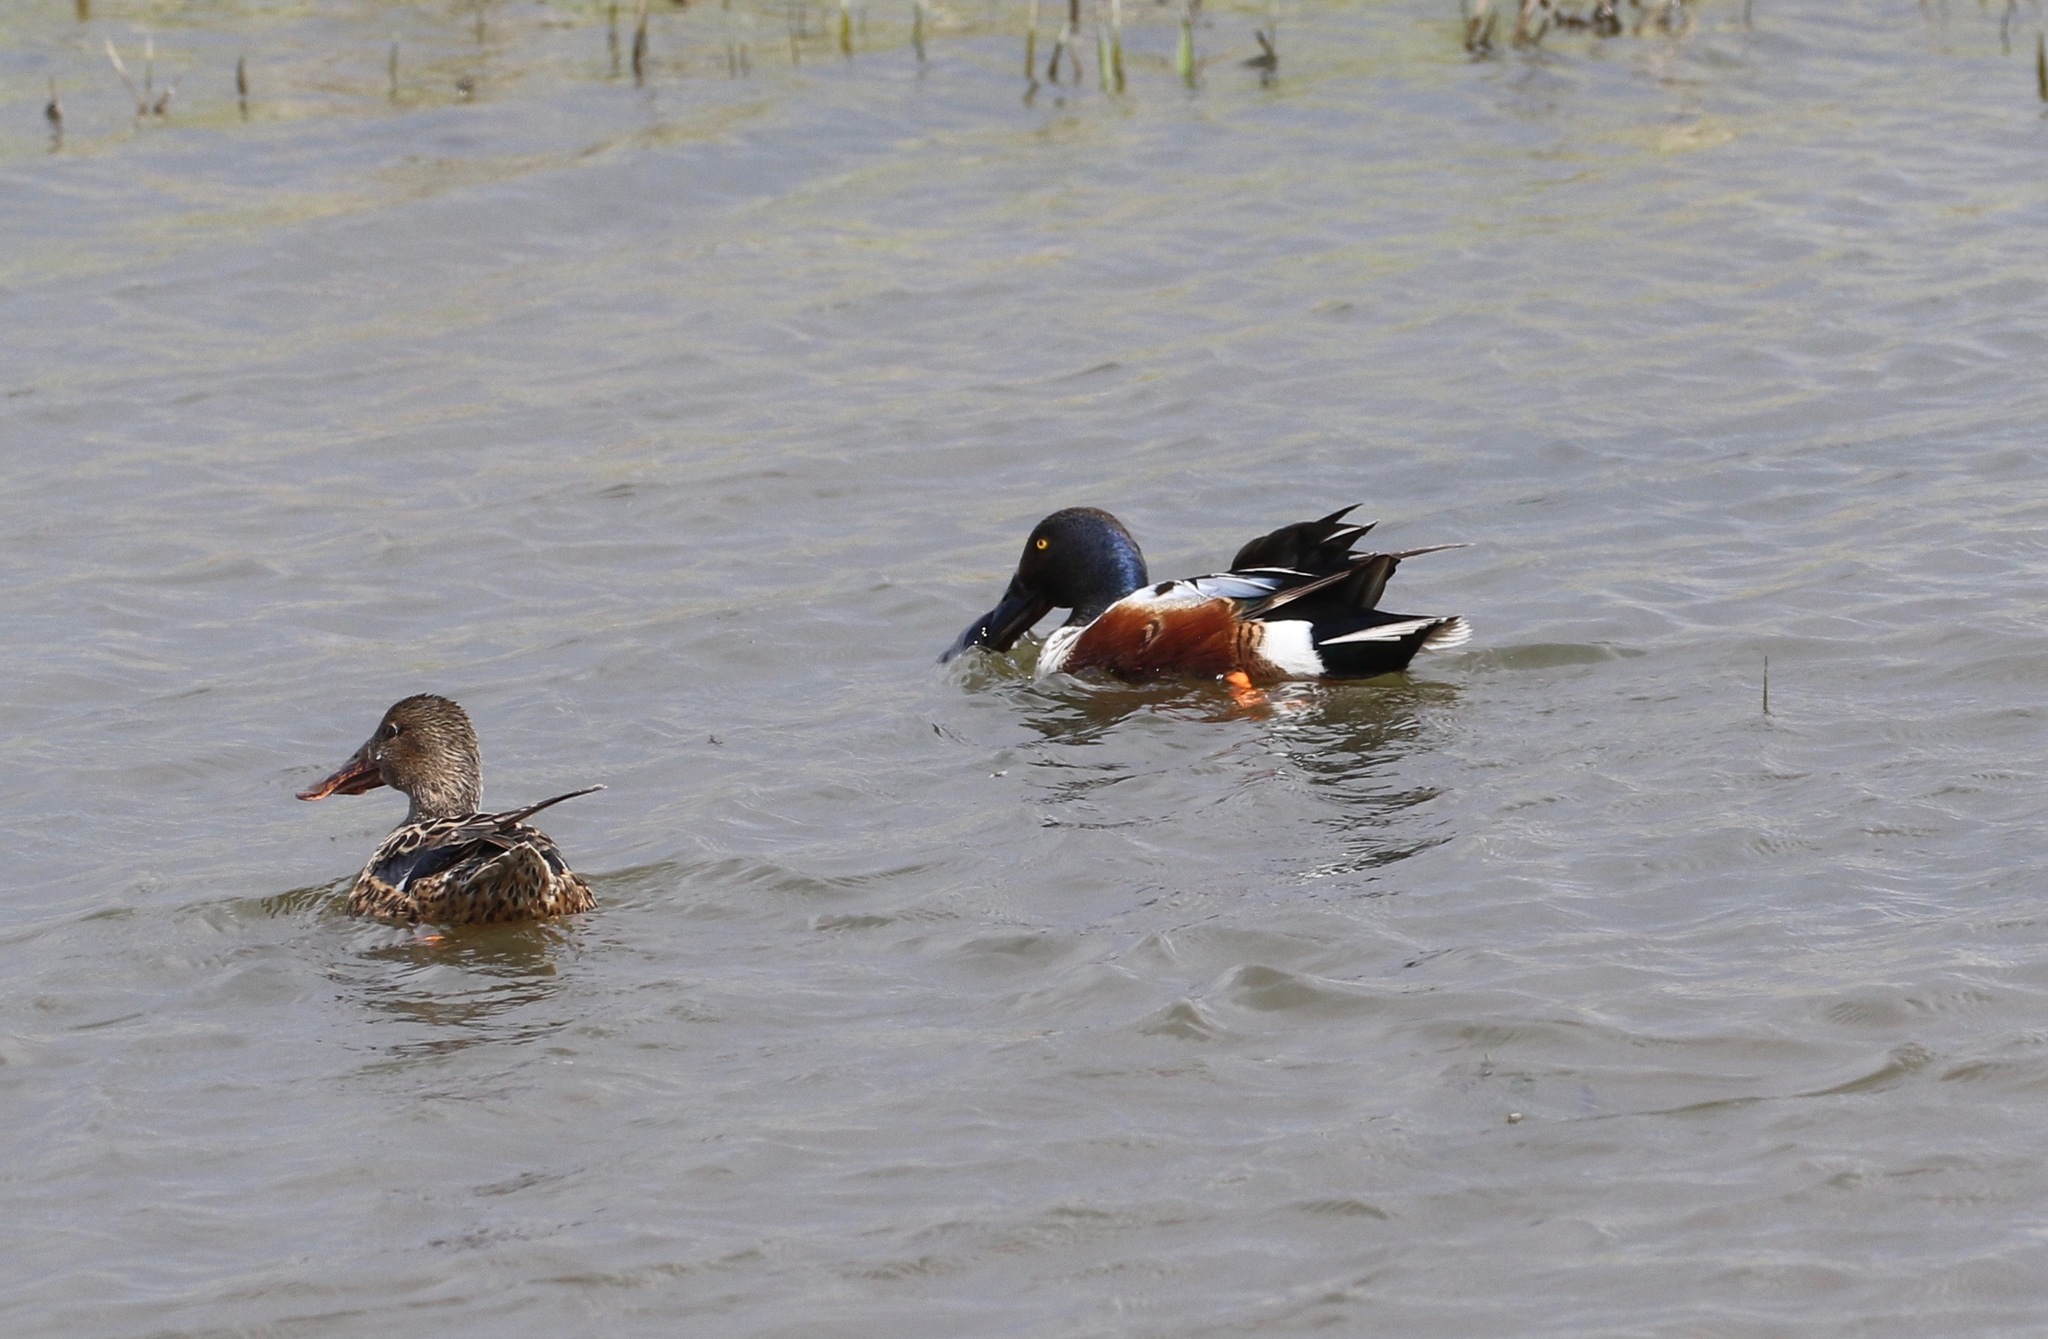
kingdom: Animalia
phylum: Chordata
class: Aves
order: Anseriformes
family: Anatidae
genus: Spatula
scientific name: Spatula clypeata
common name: Northern shoveler
